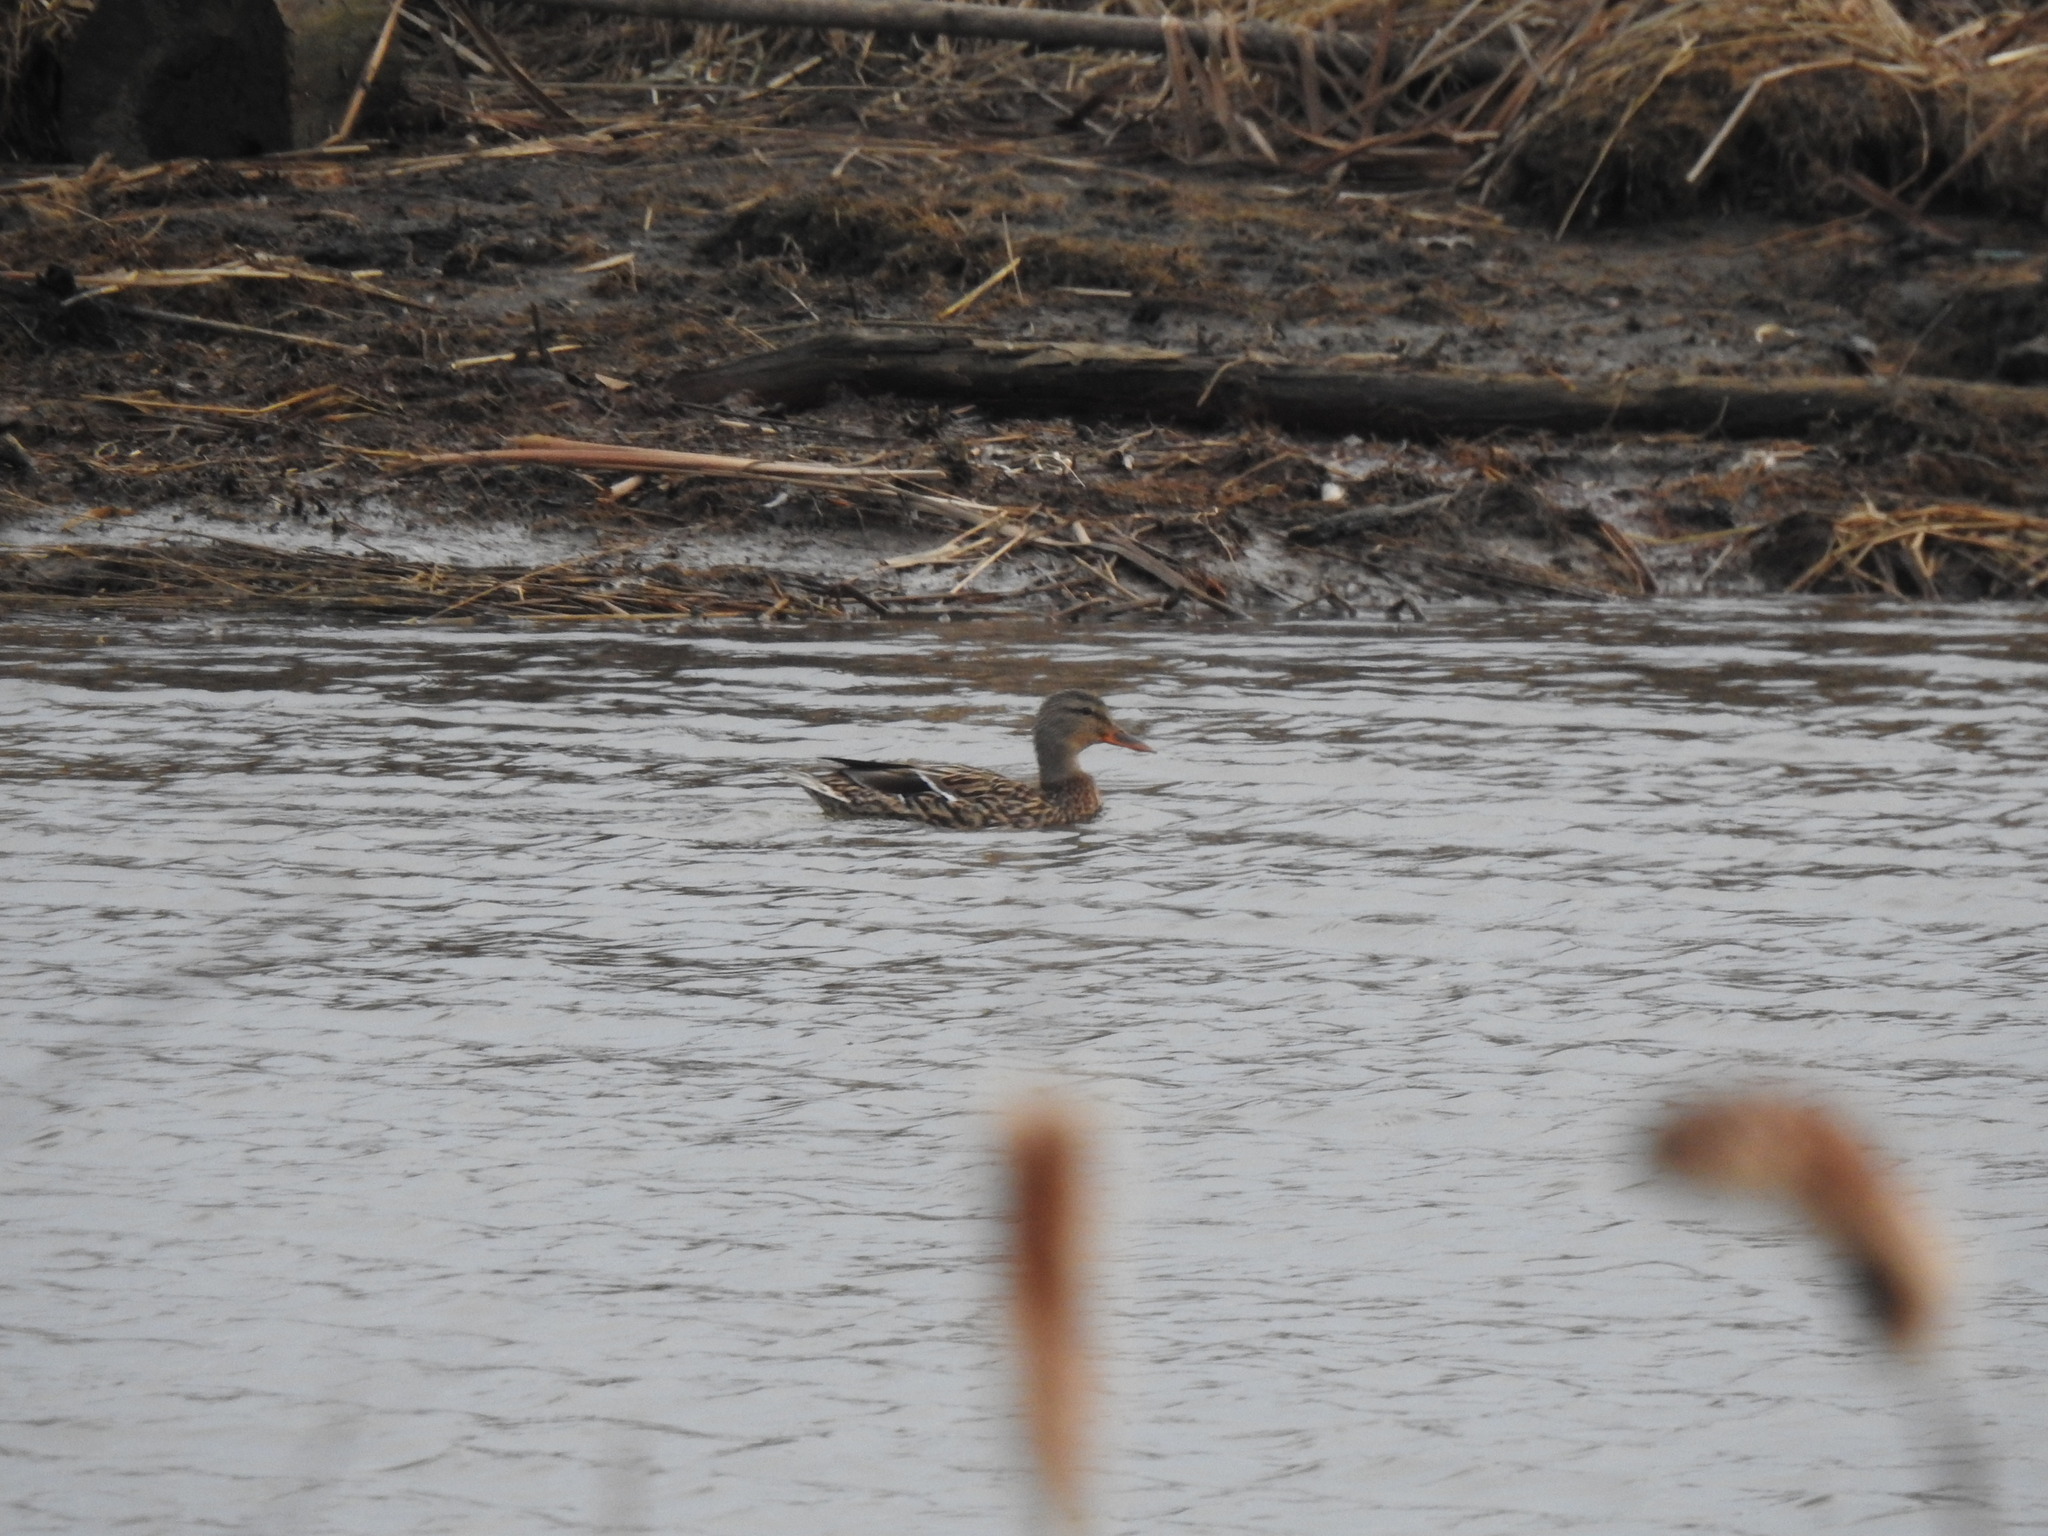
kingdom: Animalia
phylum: Chordata
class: Aves
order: Anseriformes
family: Anatidae
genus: Anas
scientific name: Anas platyrhynchos
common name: Mallard
